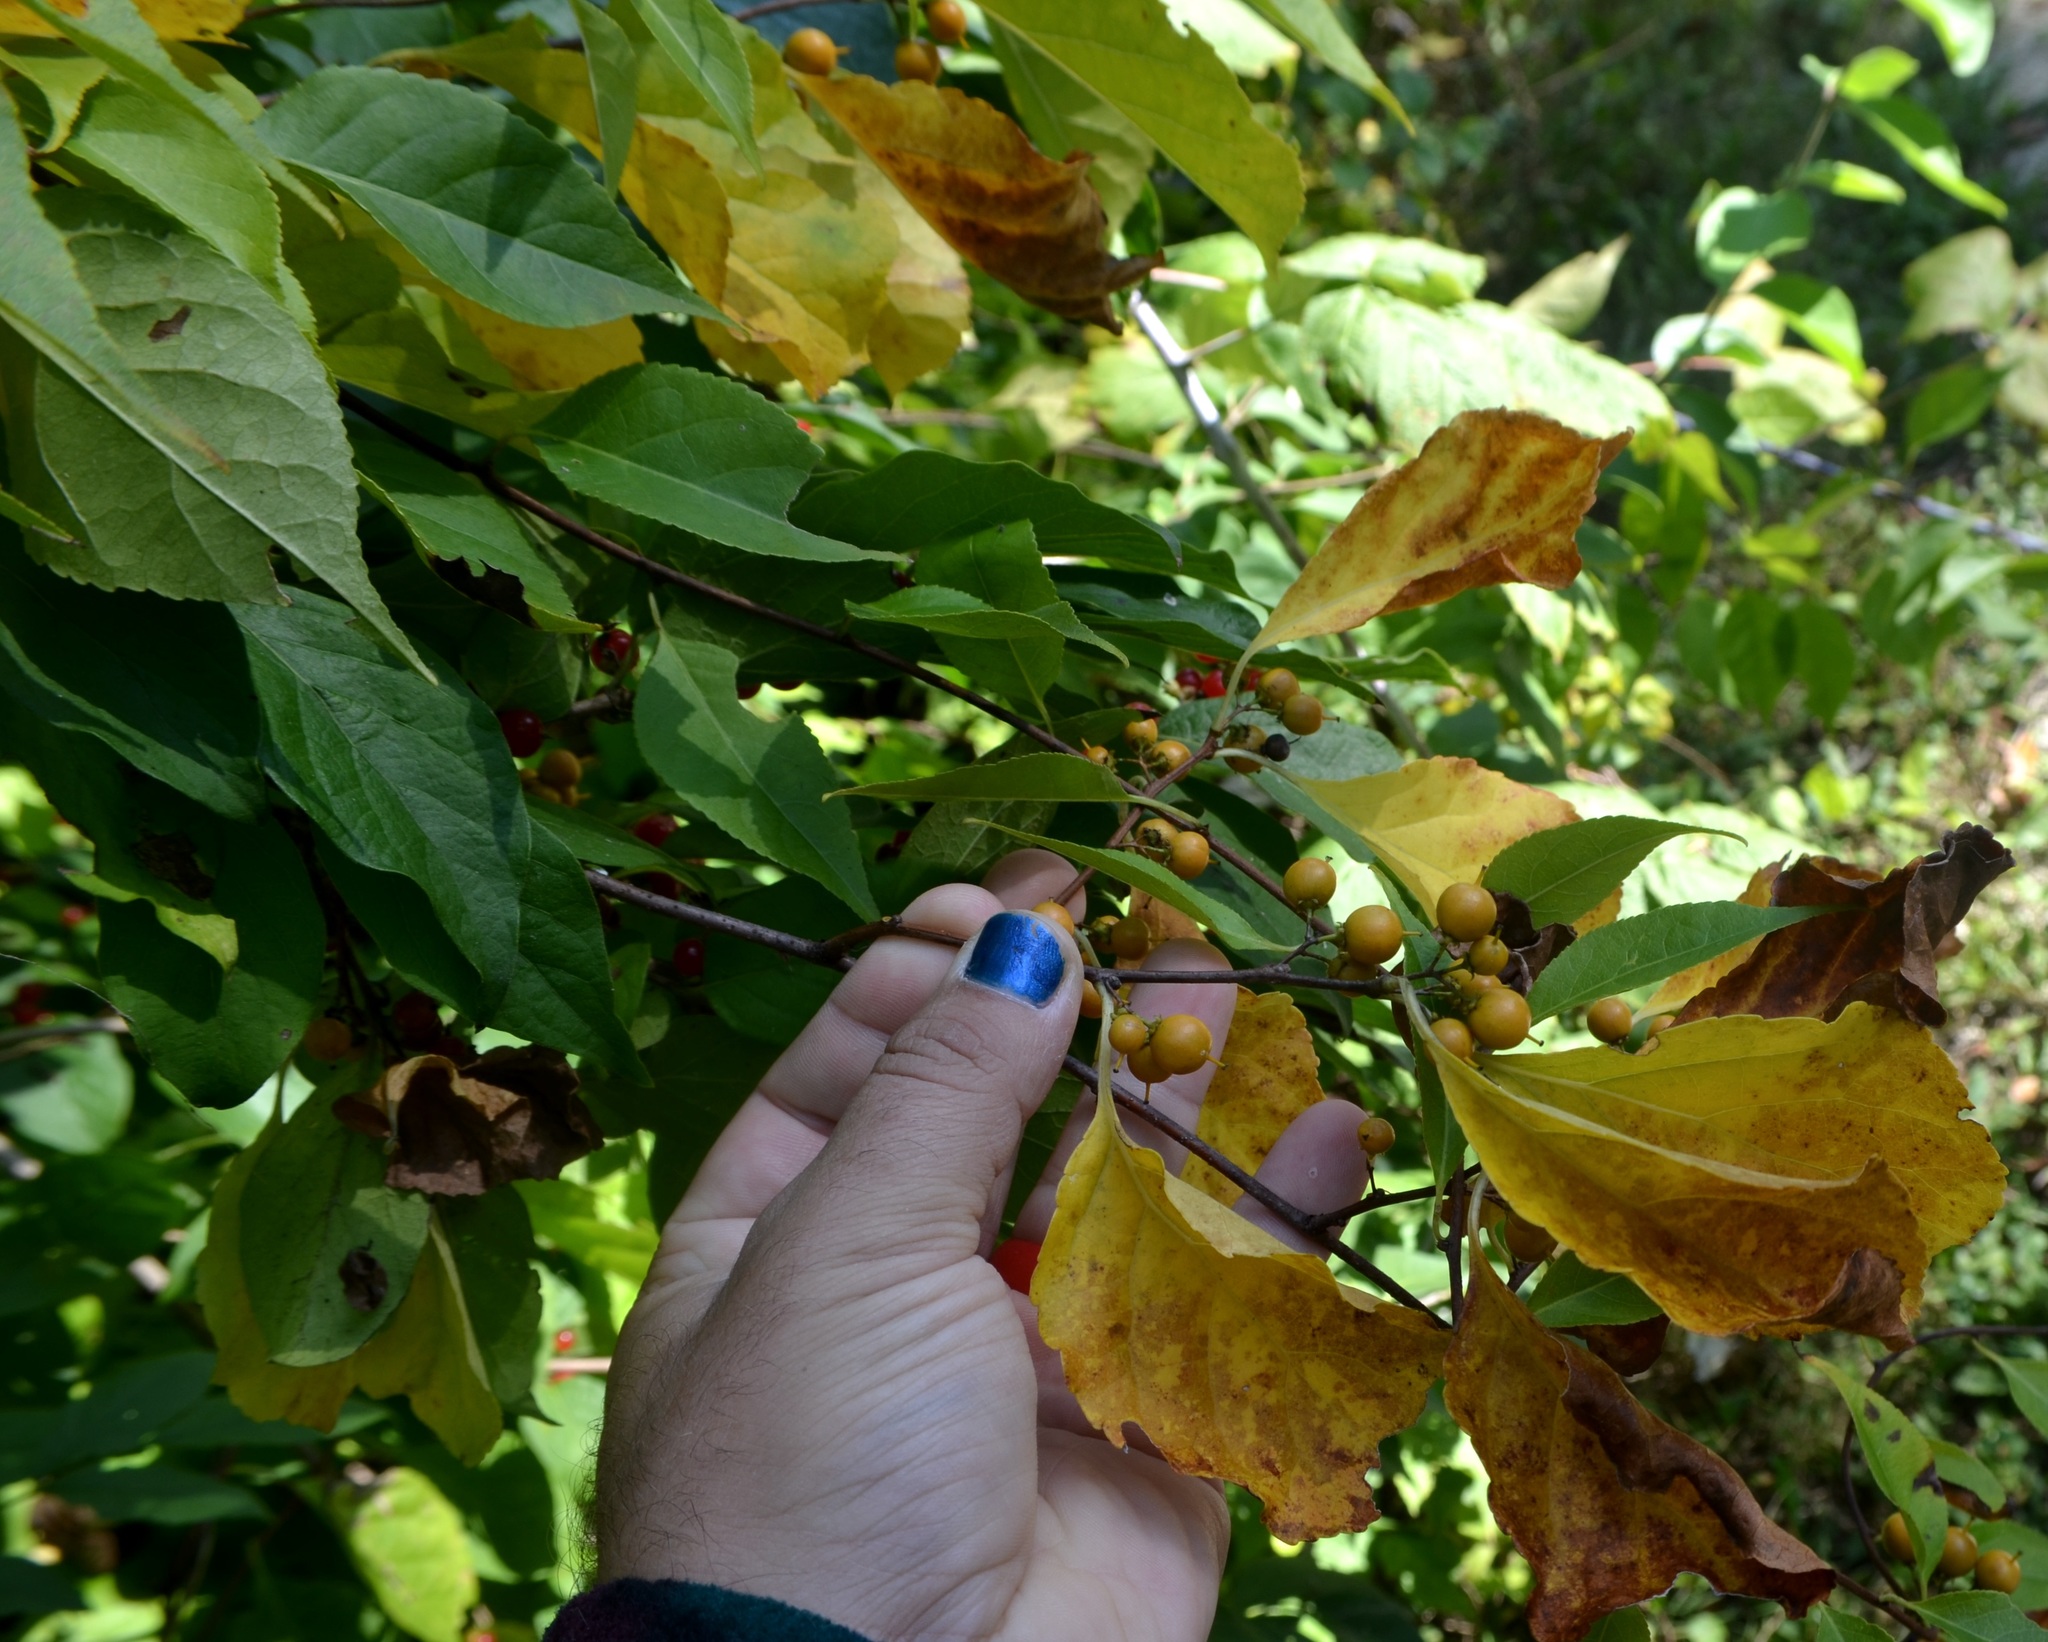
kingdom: Plantae
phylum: Tracheophyta
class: Magnoliopsida
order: Celastrales
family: Celastraceae
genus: Celastrus
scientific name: Celastrus orbiculatus
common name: Oriental bittersweet
